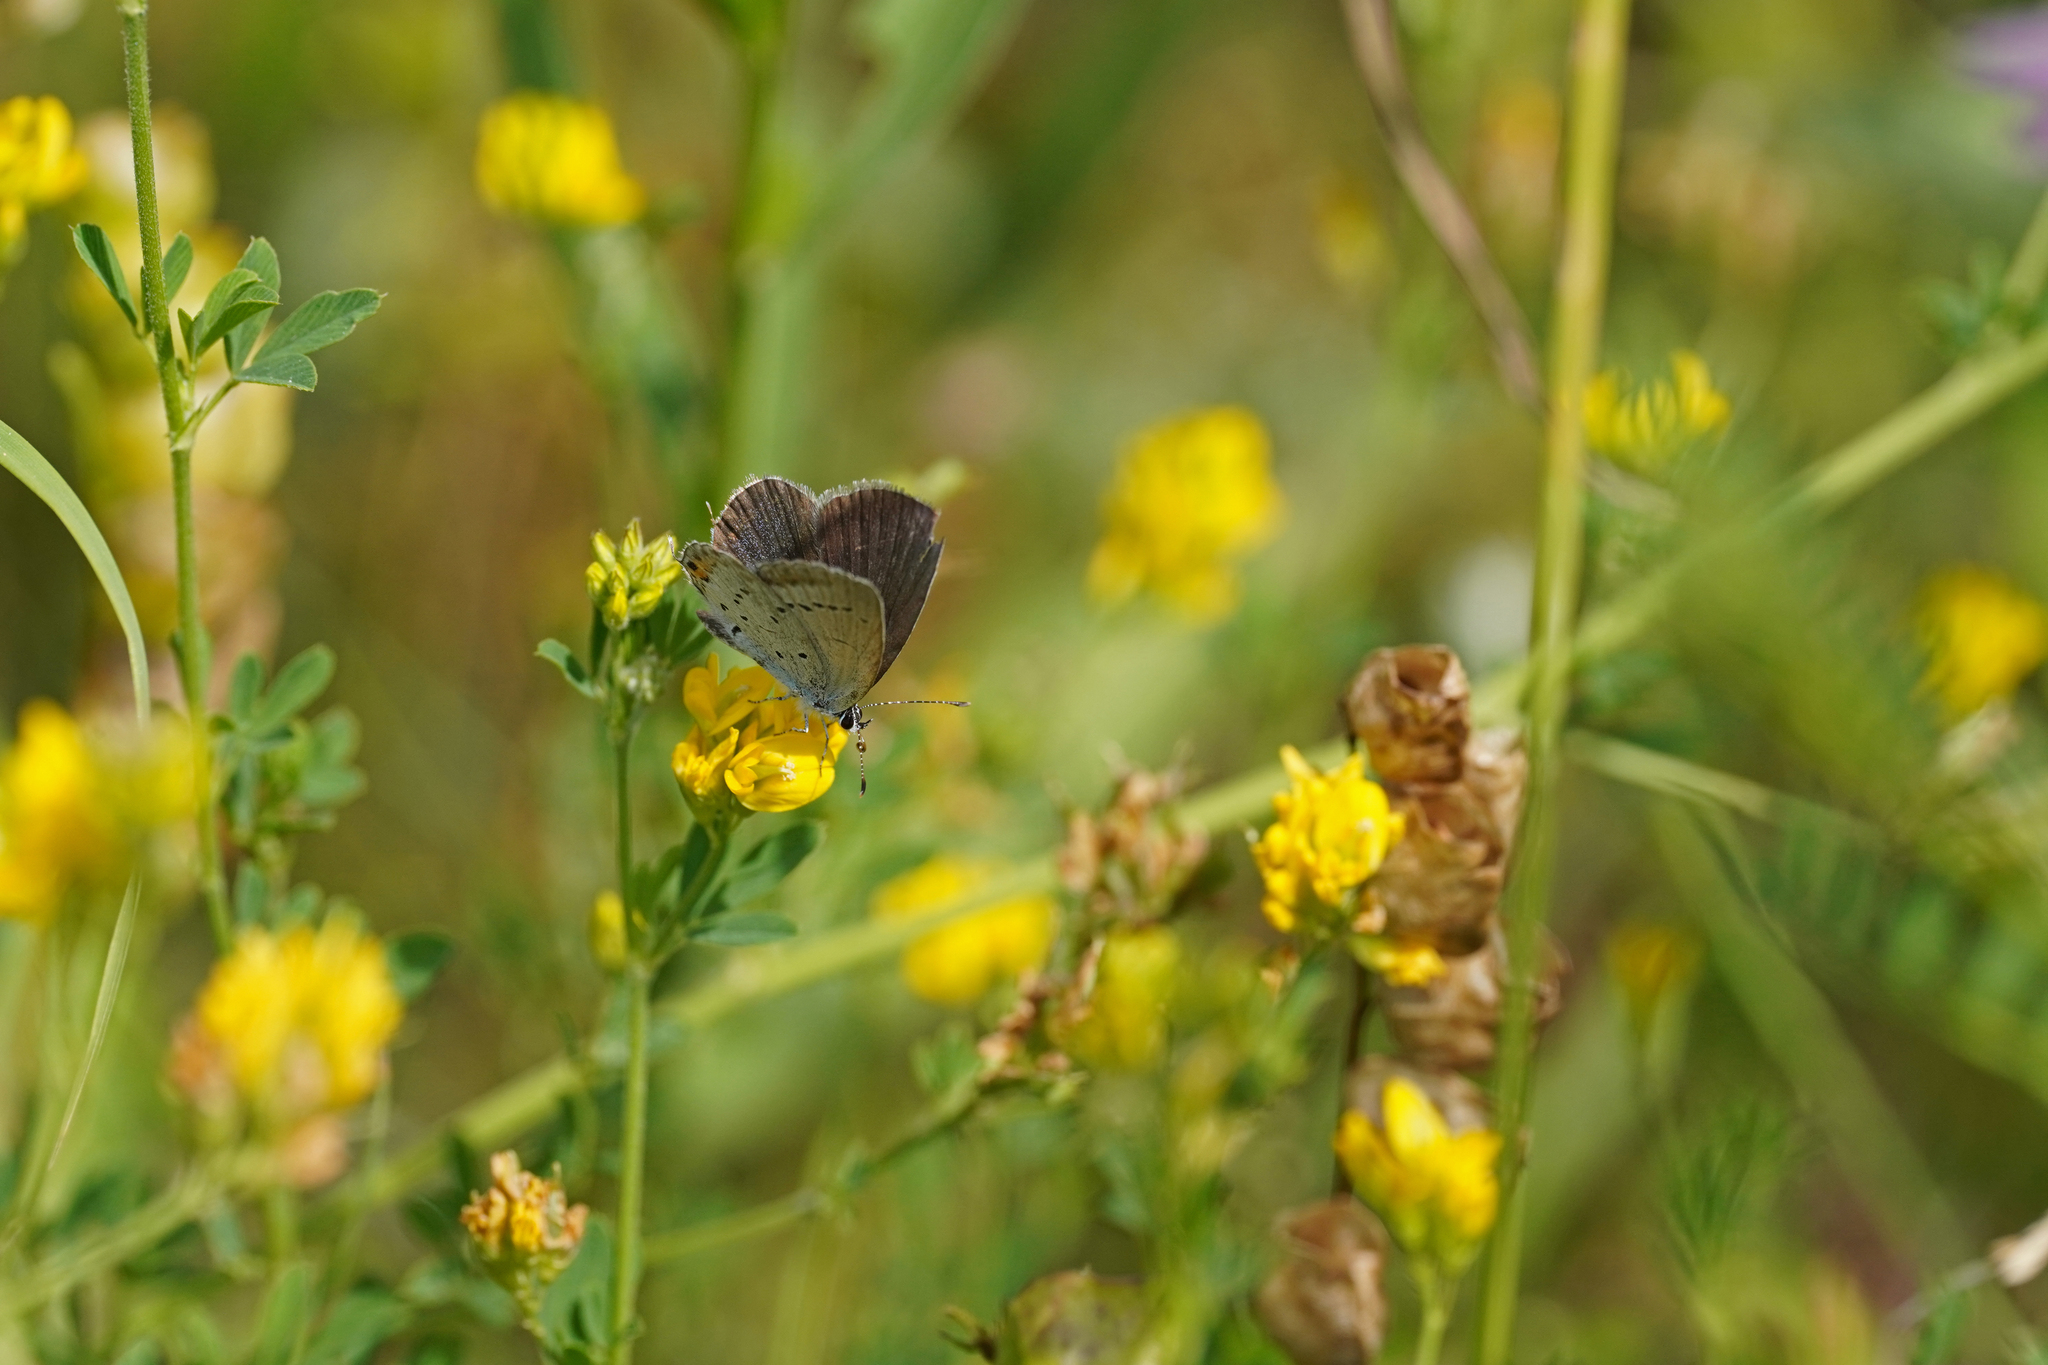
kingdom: Animalia
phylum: Arthropoda
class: Insecta
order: Lepidoptera
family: Lycaenidae
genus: Elkalyce
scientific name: Elkalyce argiades
